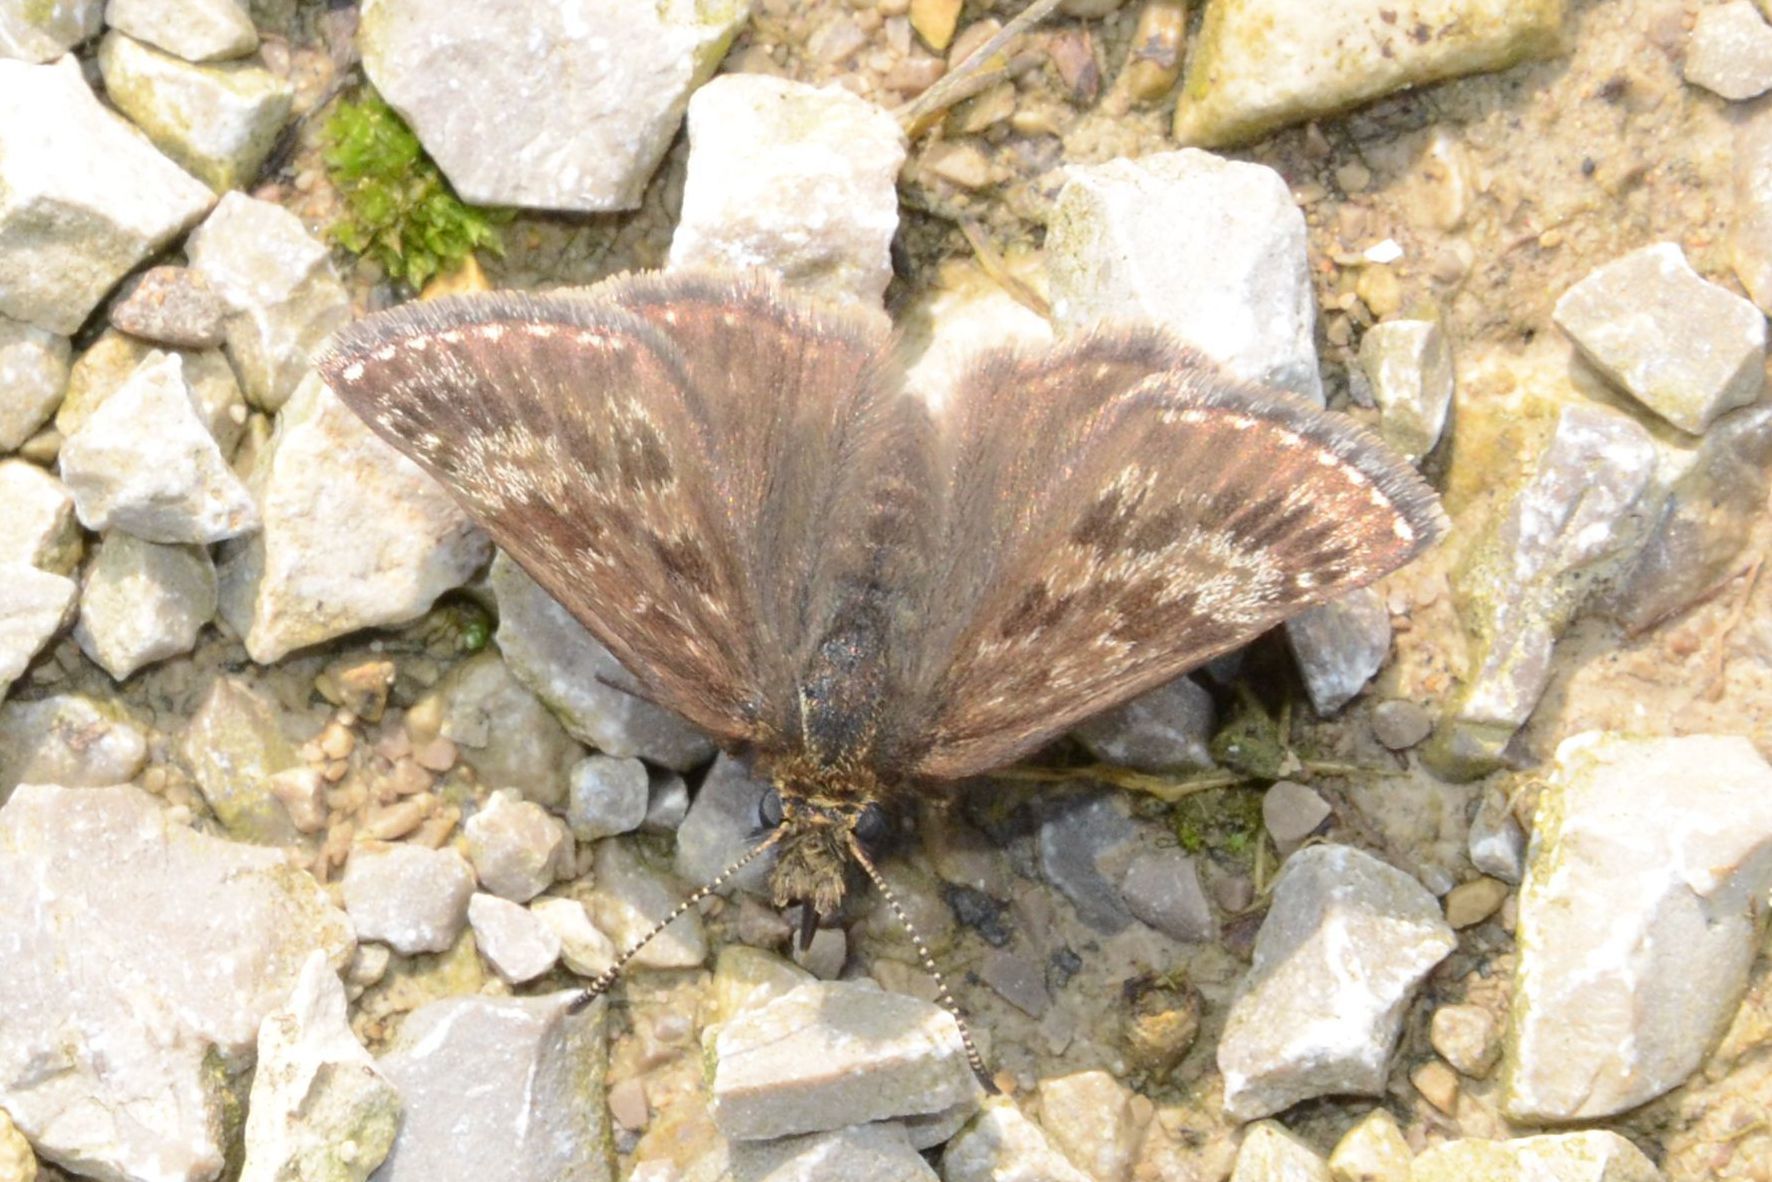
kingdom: Animalia
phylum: Arthropoda
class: Insecta
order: Lepidoptera
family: Hesperiidae
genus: Erynnis
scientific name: Erynnis tages
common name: Dingy skipper
